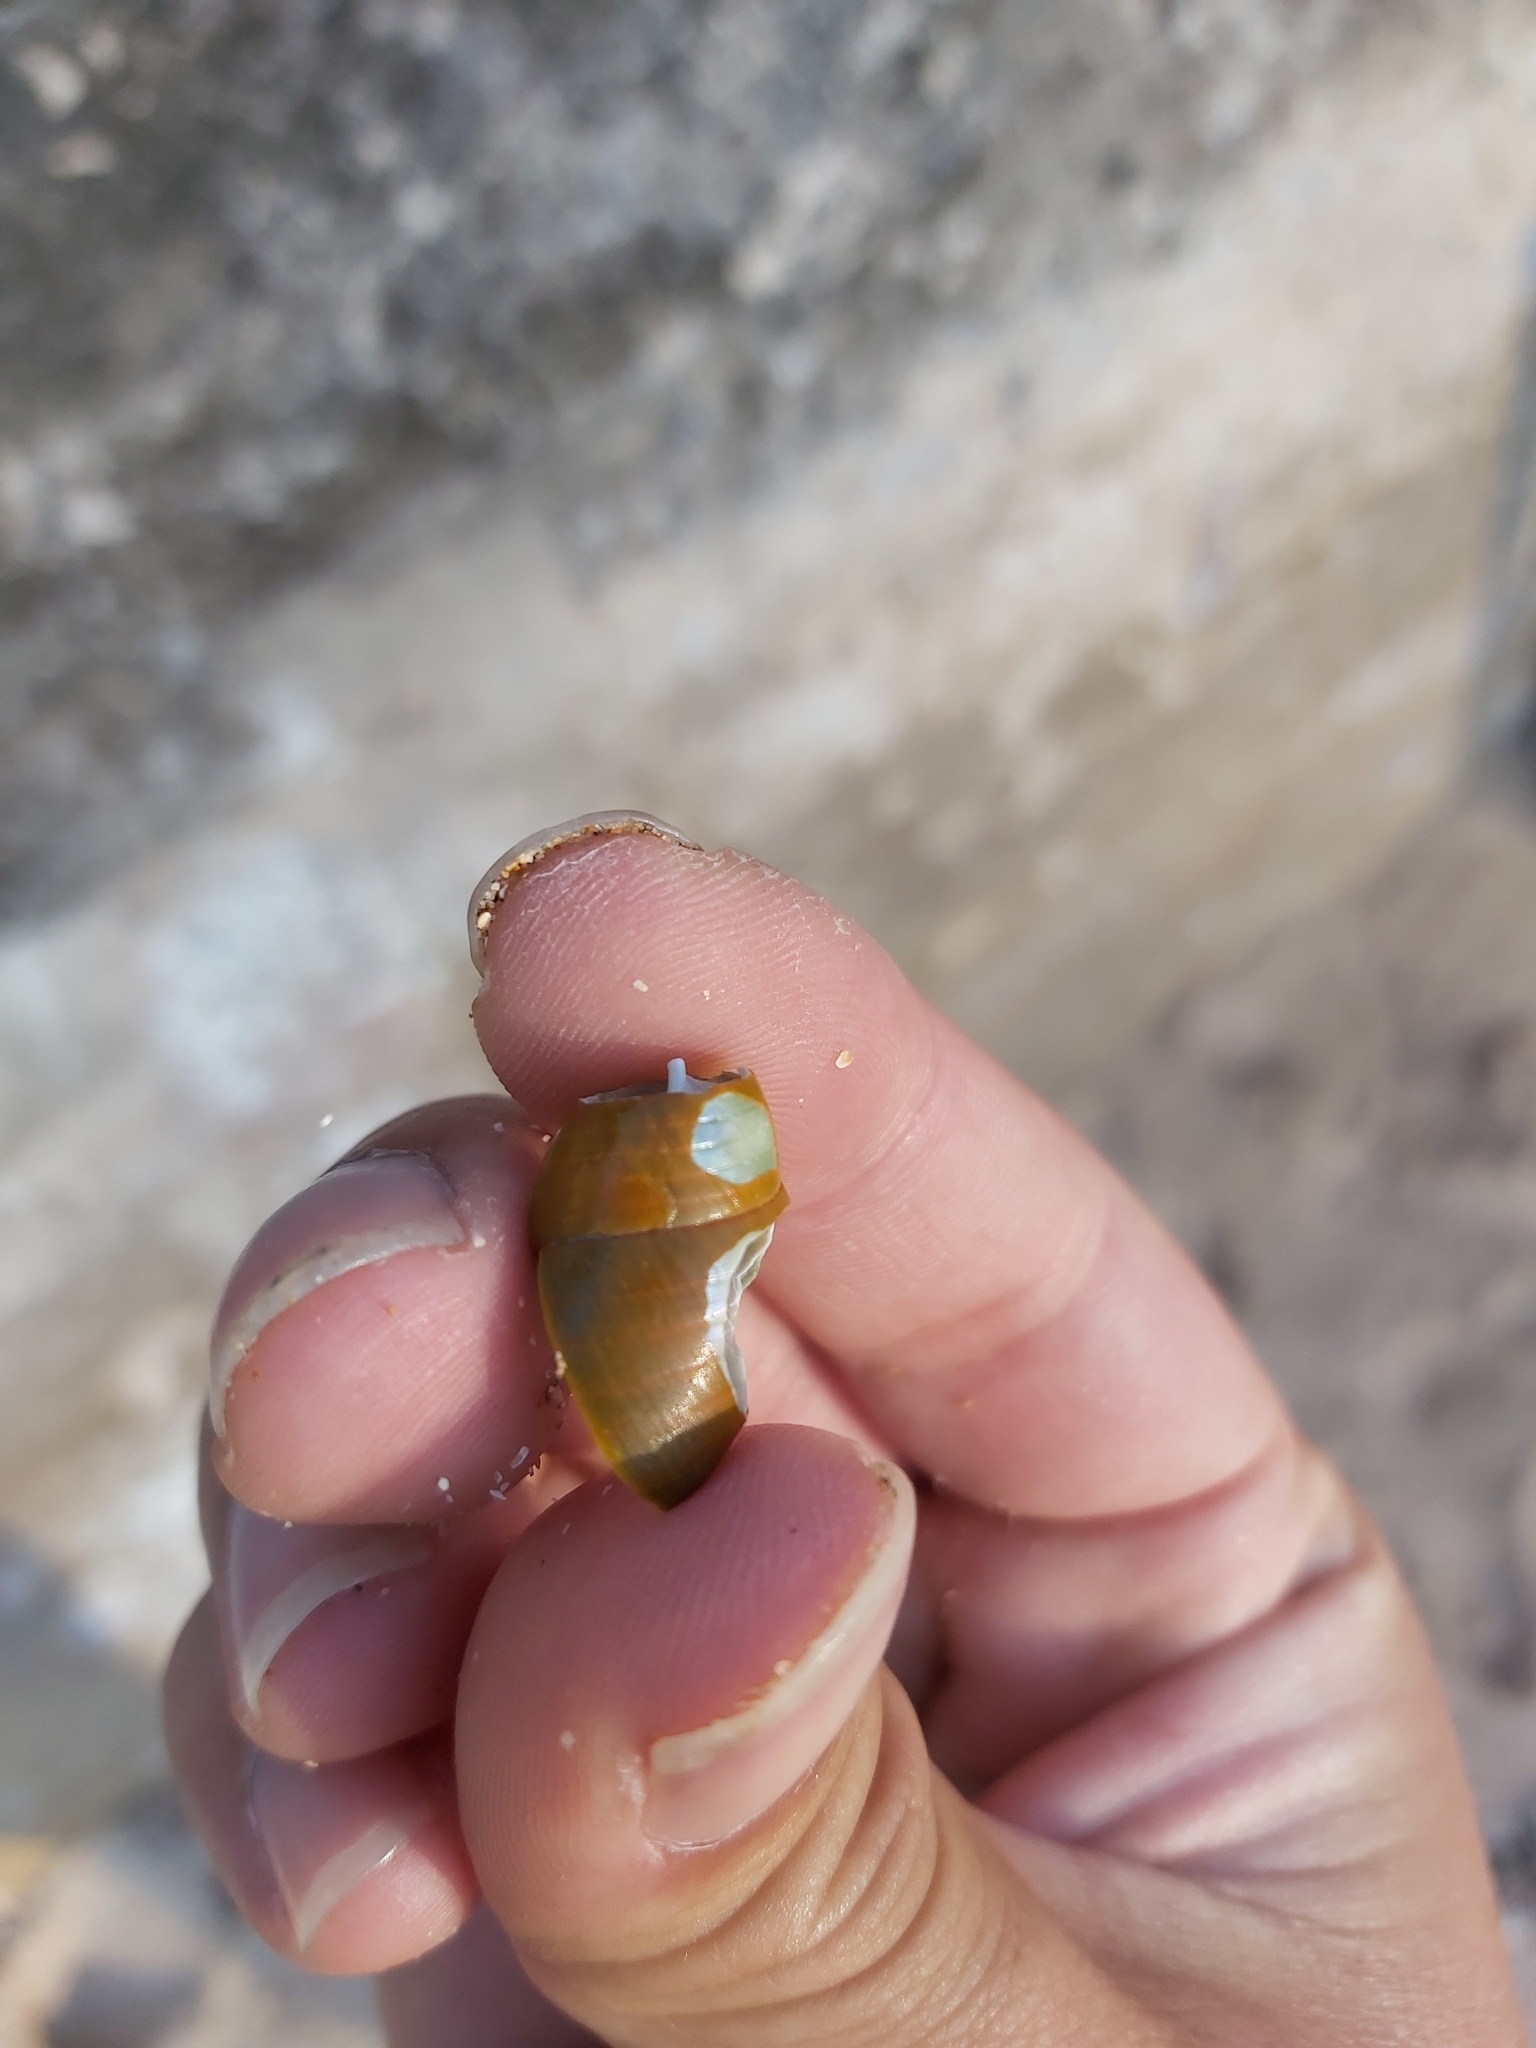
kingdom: Animalia
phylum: Mollusca
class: Gastropoda
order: Trochida
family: Trochidae
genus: Phasianotrochus
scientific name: Phasianotrochus eximius
